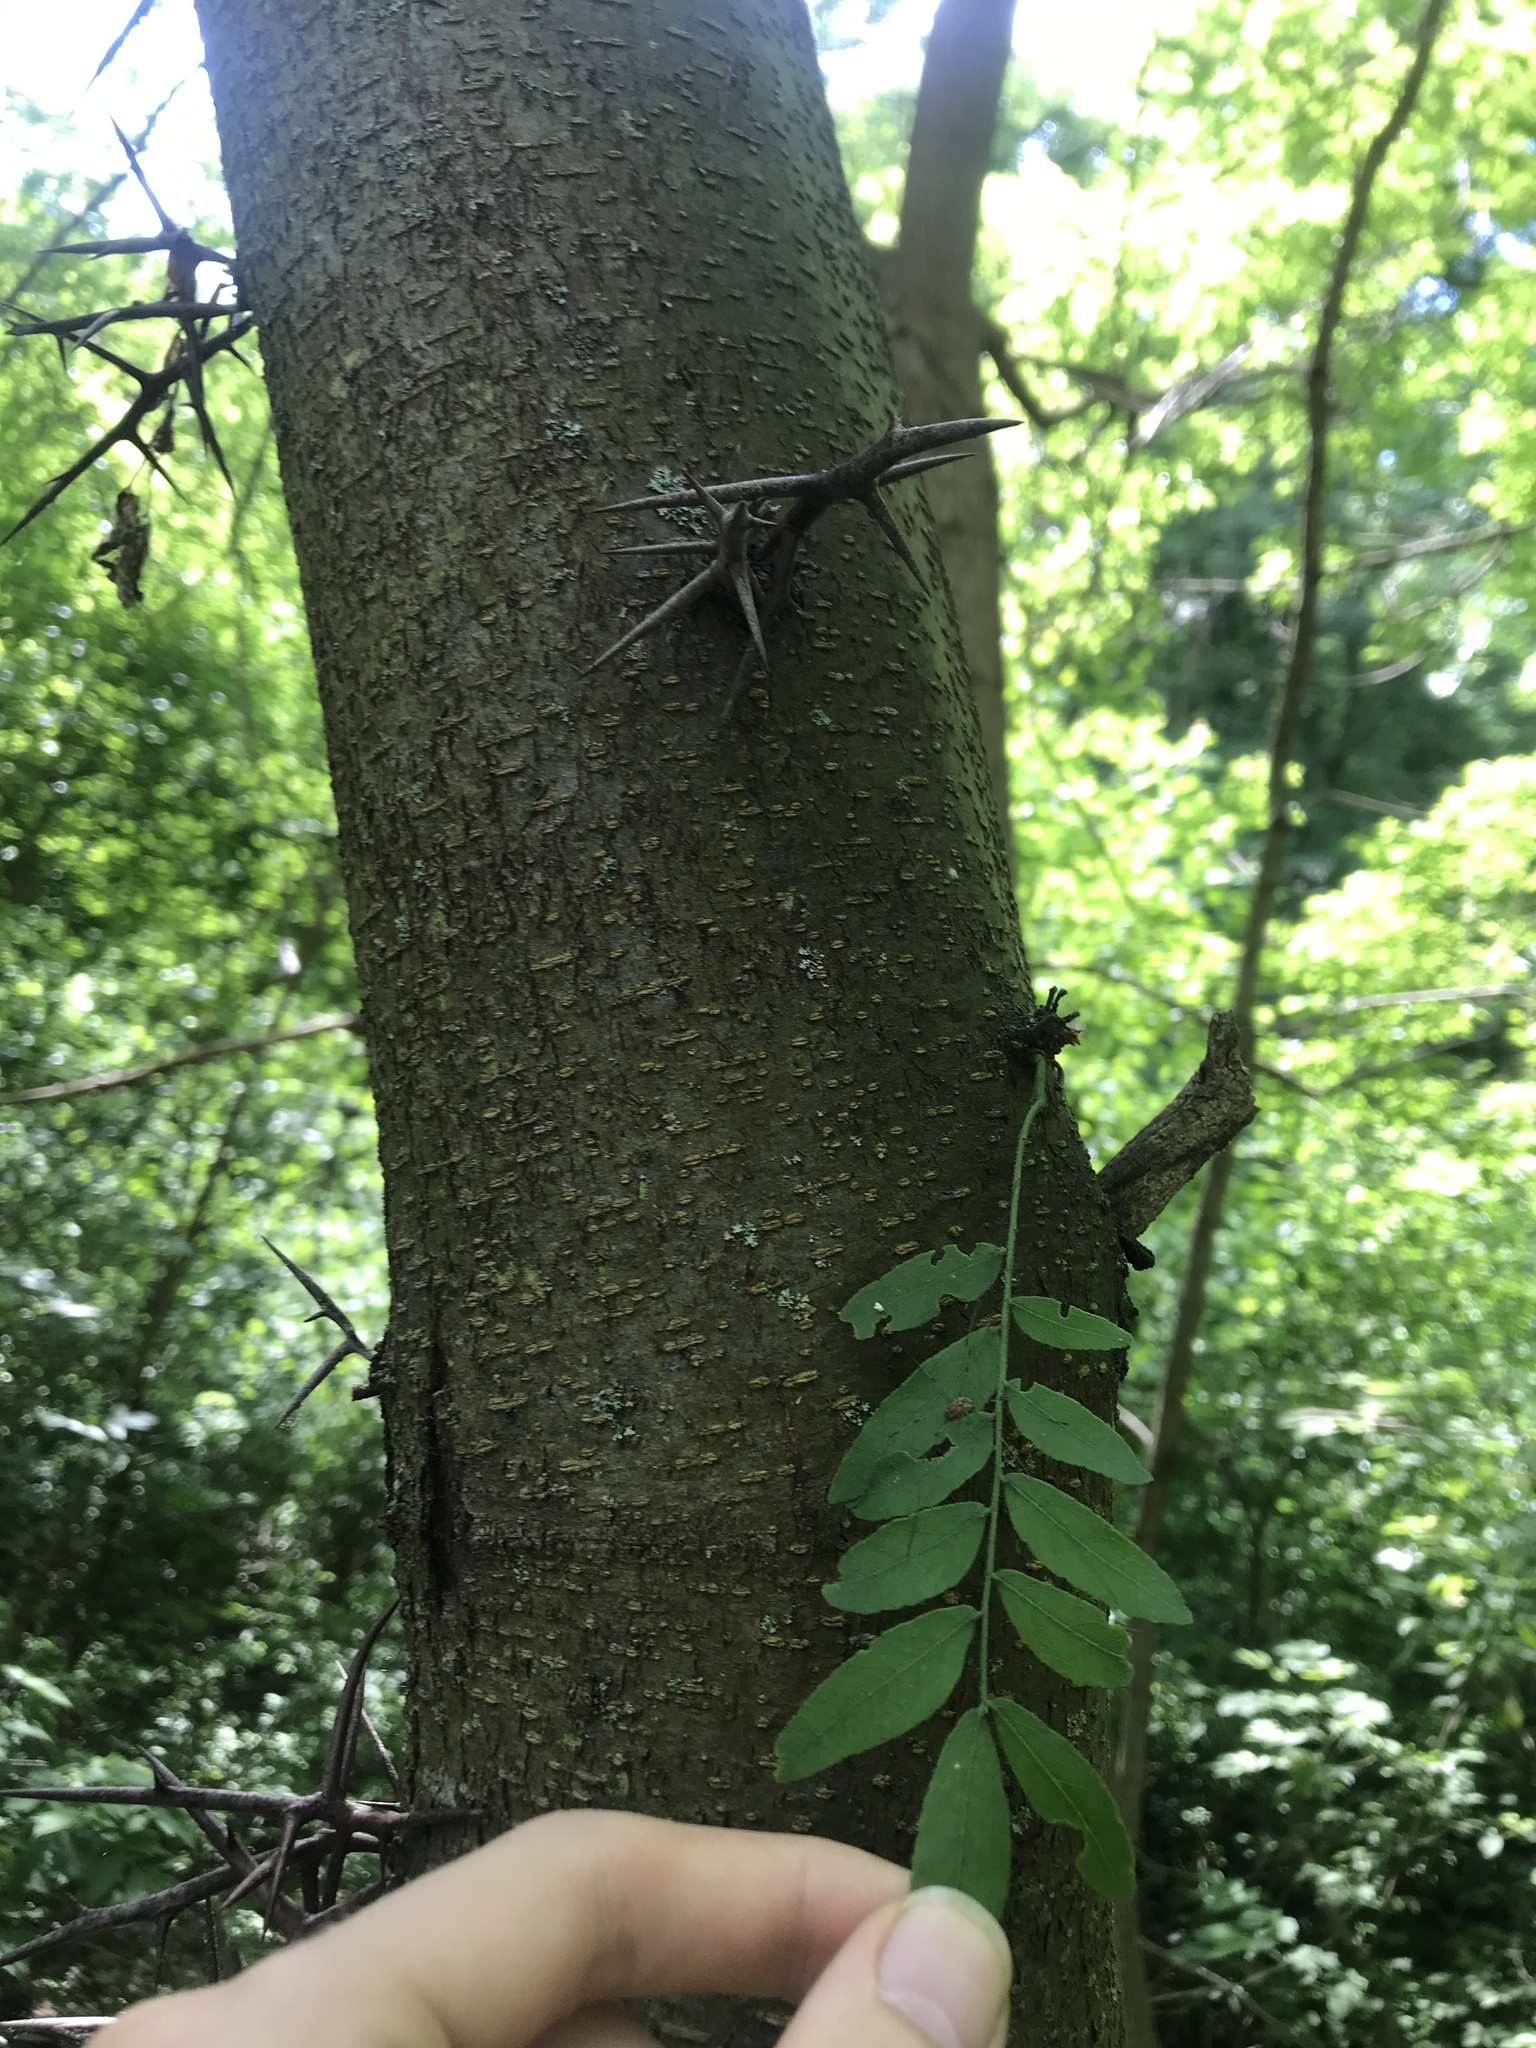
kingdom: Plantae
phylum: Tracheophyta
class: Magnoliopsida
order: Fabales
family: Fabaceae
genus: Gleditsia
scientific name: Gleditsia triacanthos
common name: Common honeylocust
